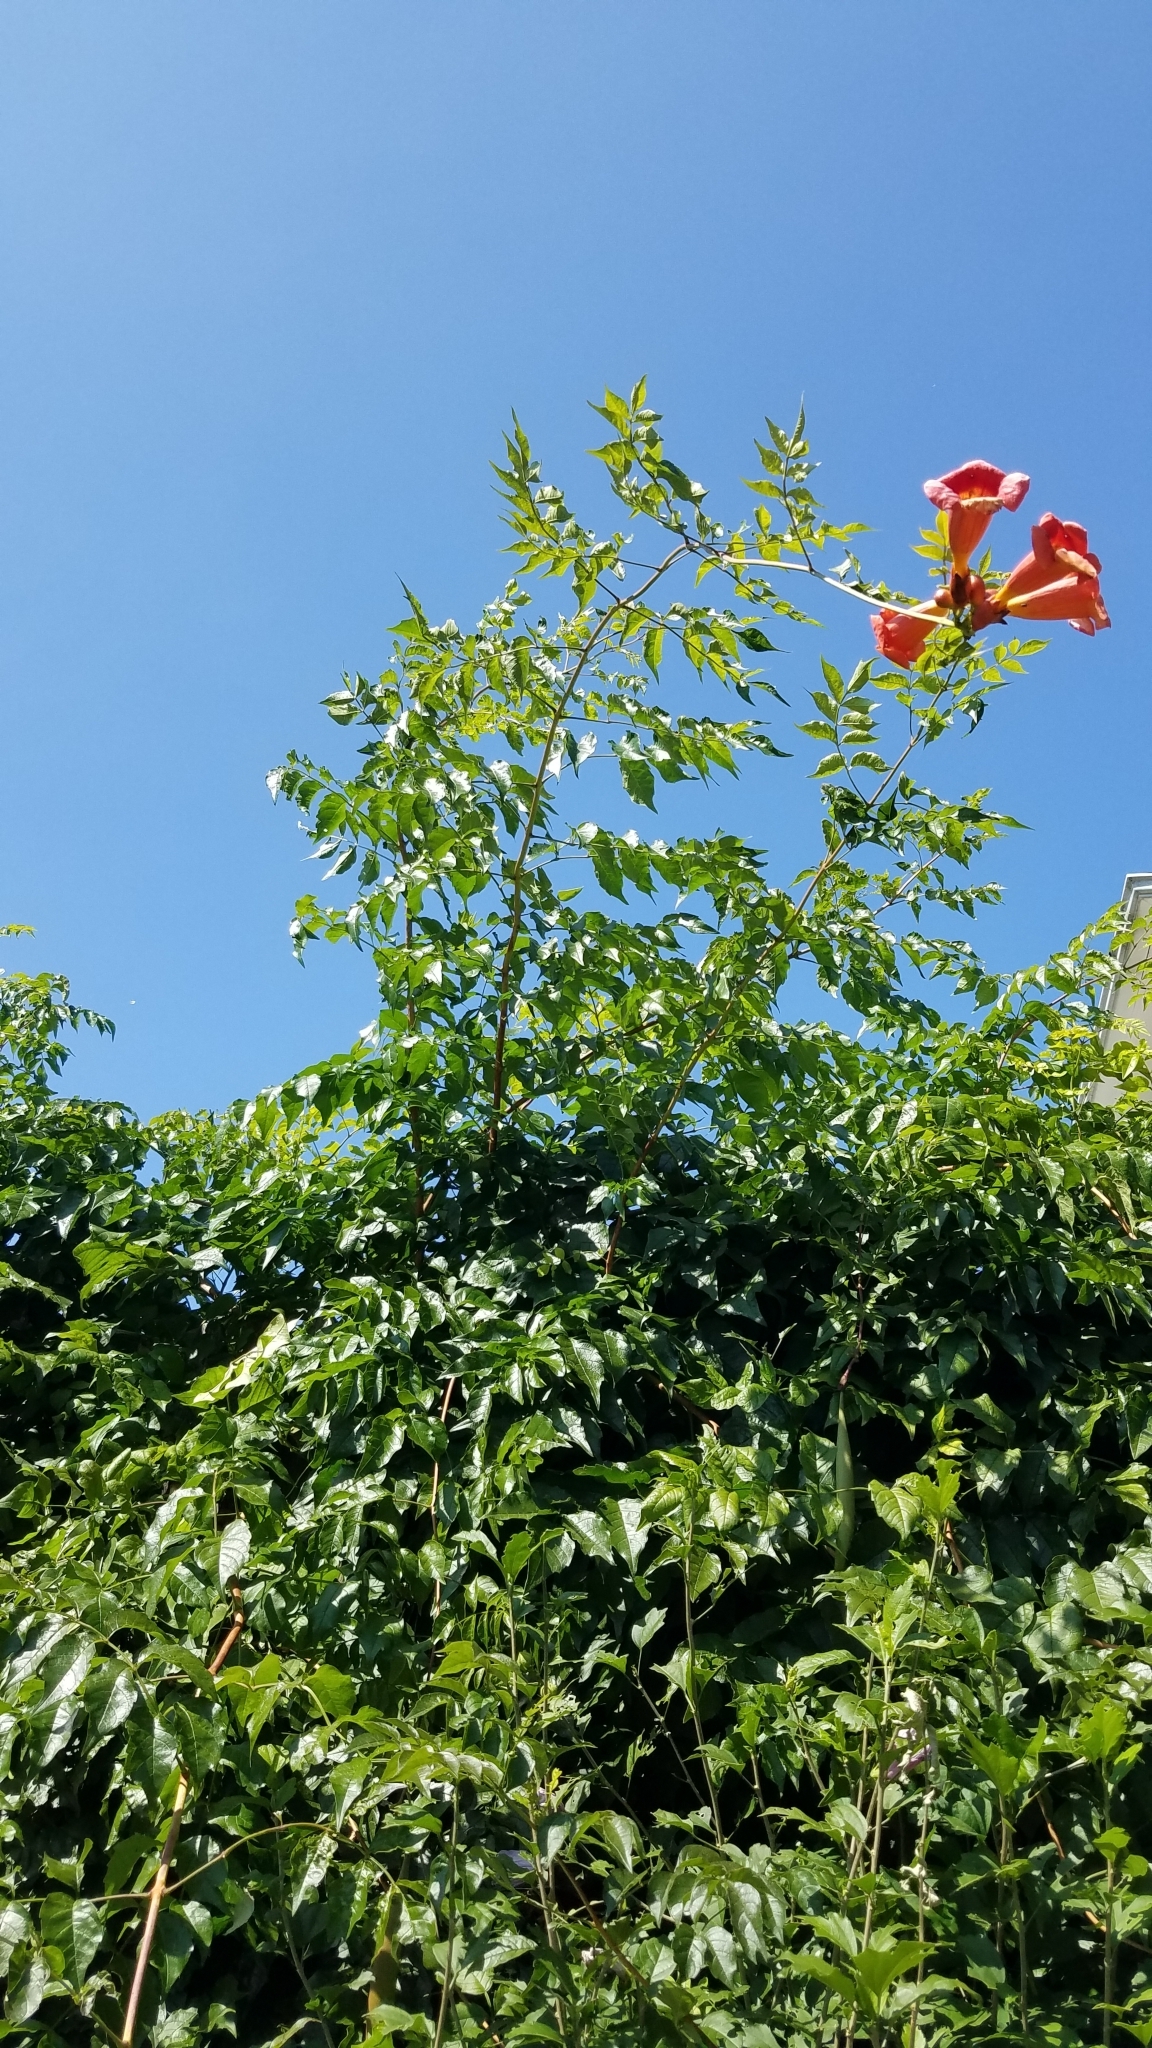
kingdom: Plantae
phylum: Tracheophyta
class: Magnoliopsida
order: Lamiales
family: Bignoniaceae
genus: Campsis
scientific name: Campsis radicans
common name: Trumpet-creeper
